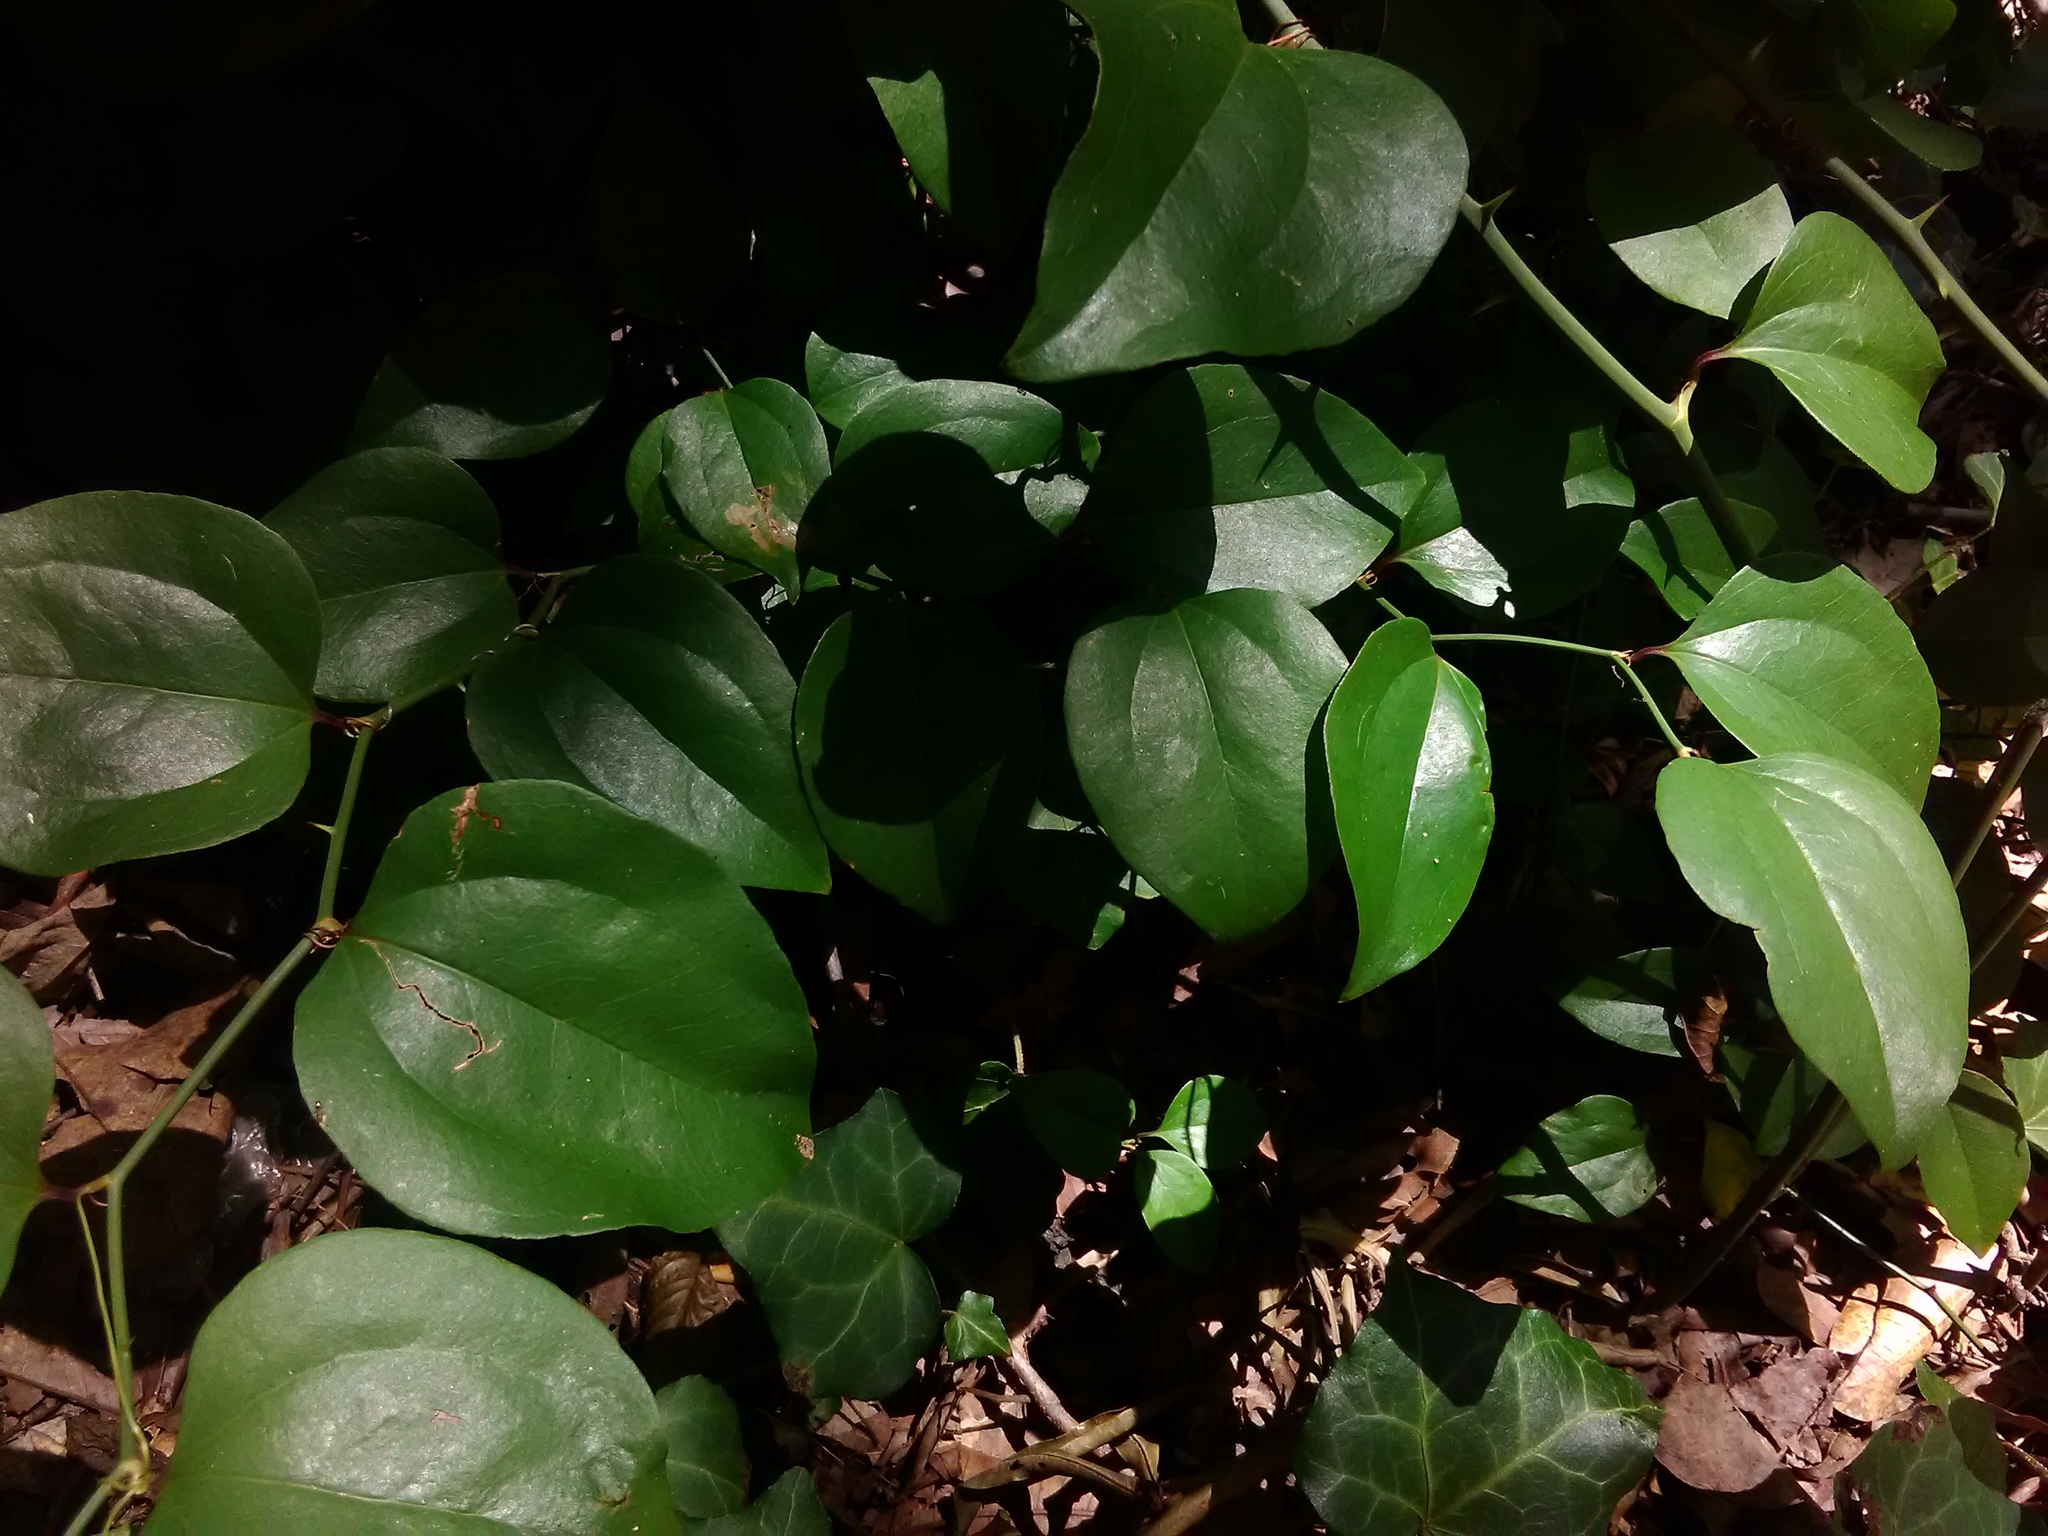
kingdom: Plantae
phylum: Tracheophyta
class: Liliopsida
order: Liliales
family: Smilacaceae
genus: Smilax
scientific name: Smilax rotundifolia
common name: Bullbriar
